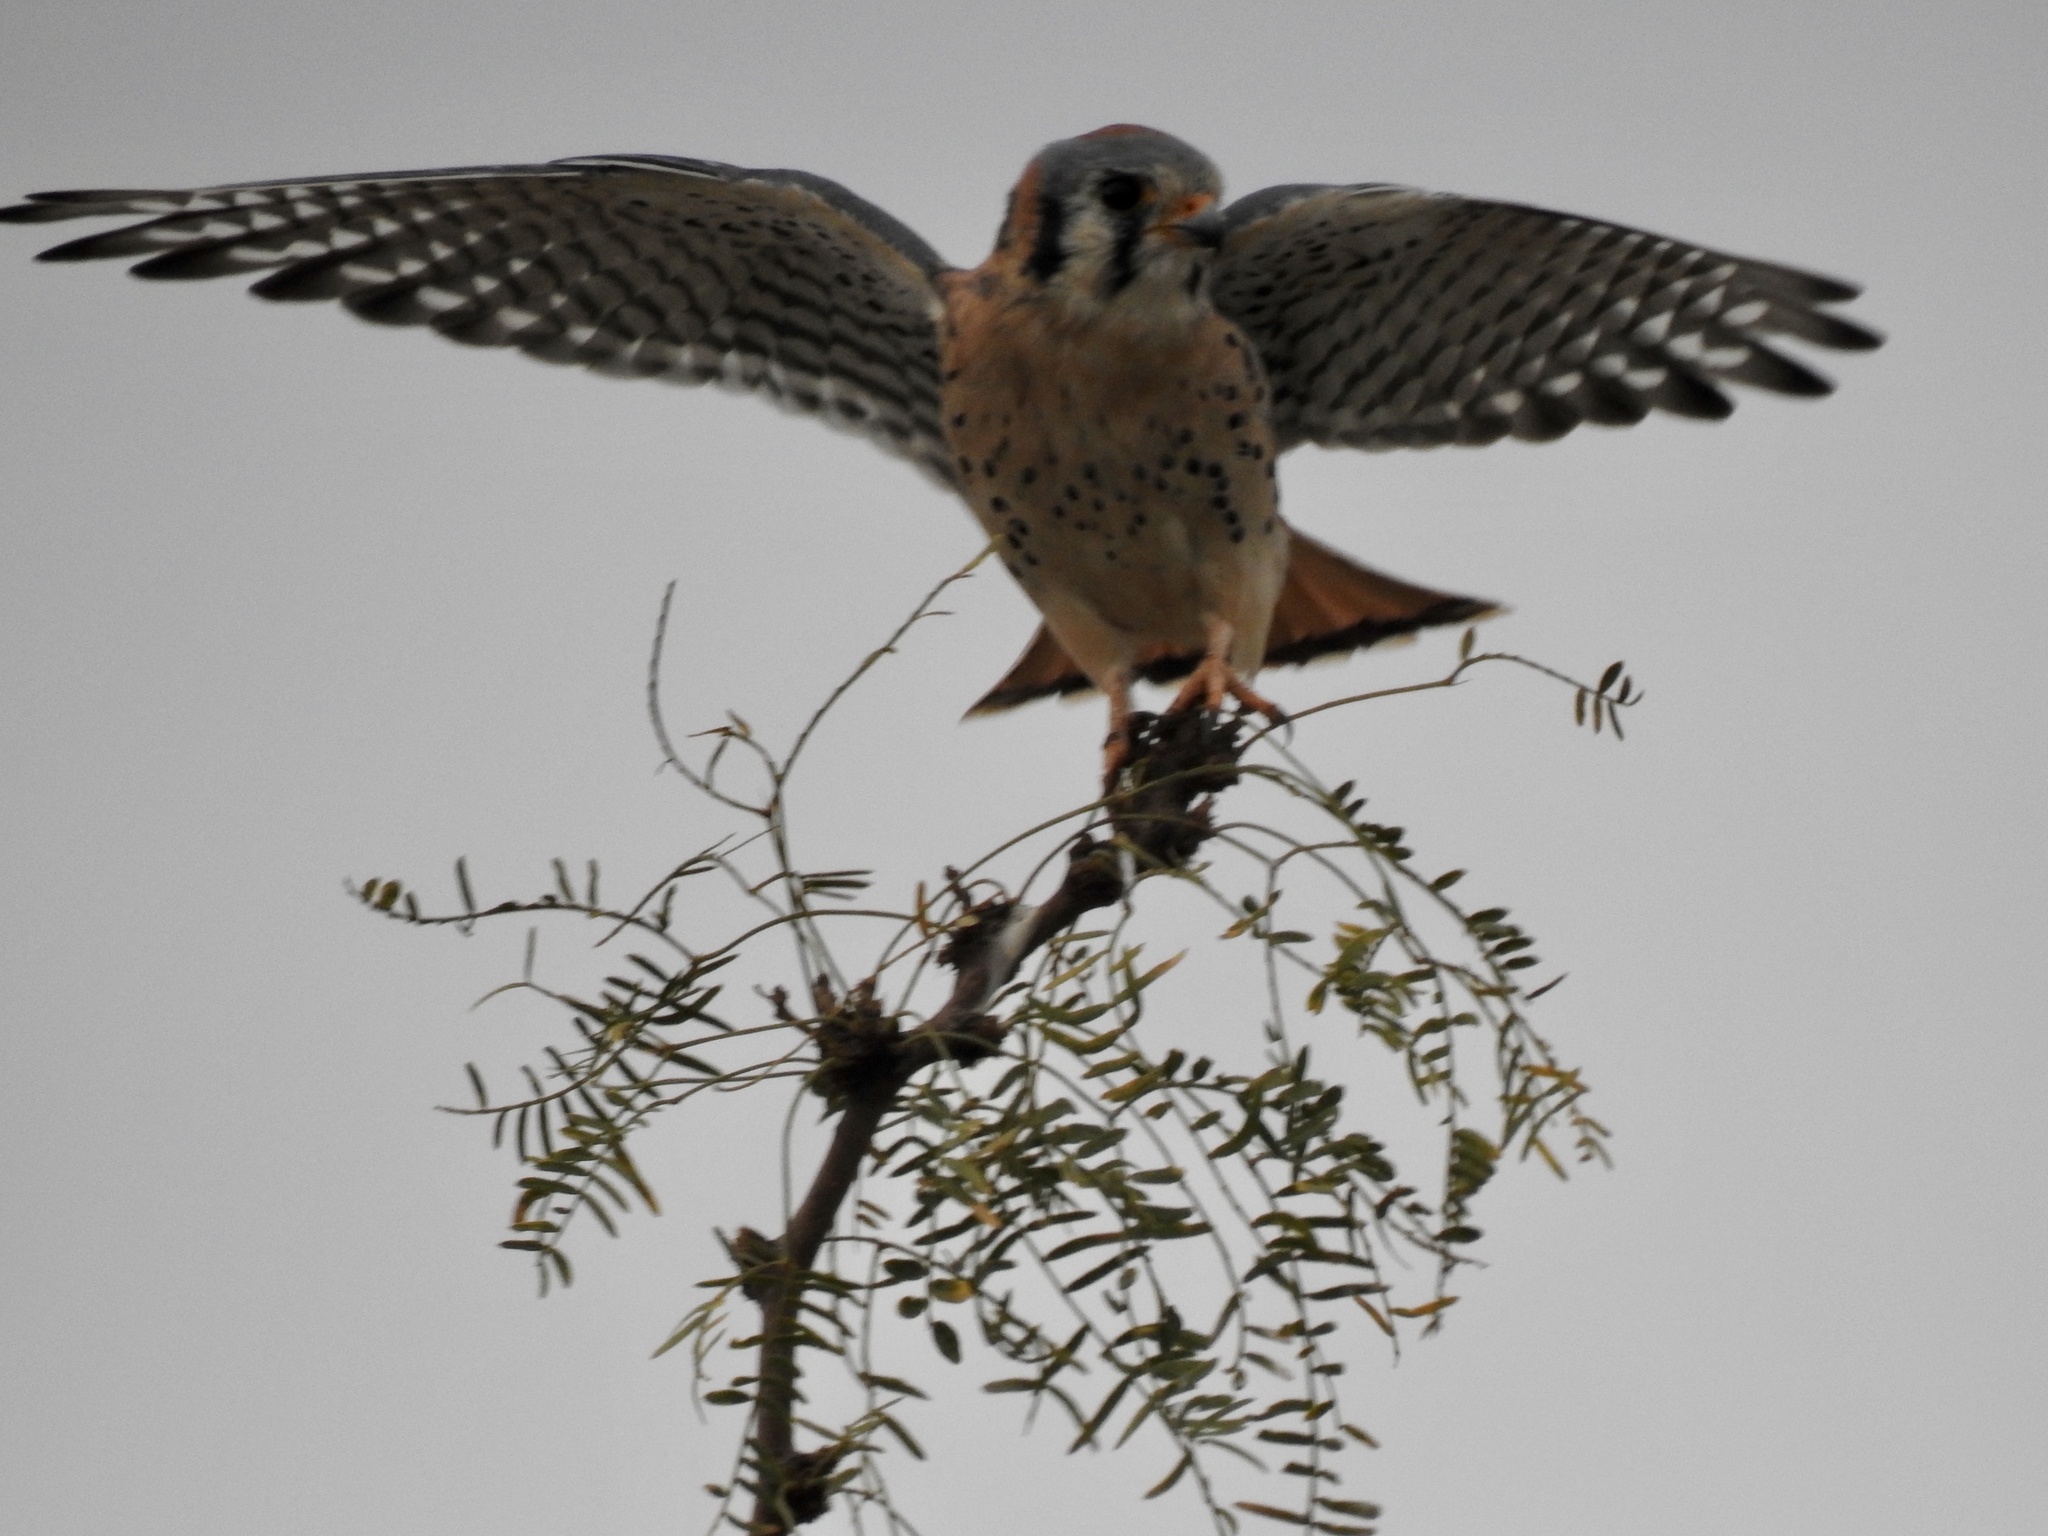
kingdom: Animalia
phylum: Chordata
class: Aves
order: Falconiformes
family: Falconidae
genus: Falco
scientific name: Falco sparverius
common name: American kestrel
